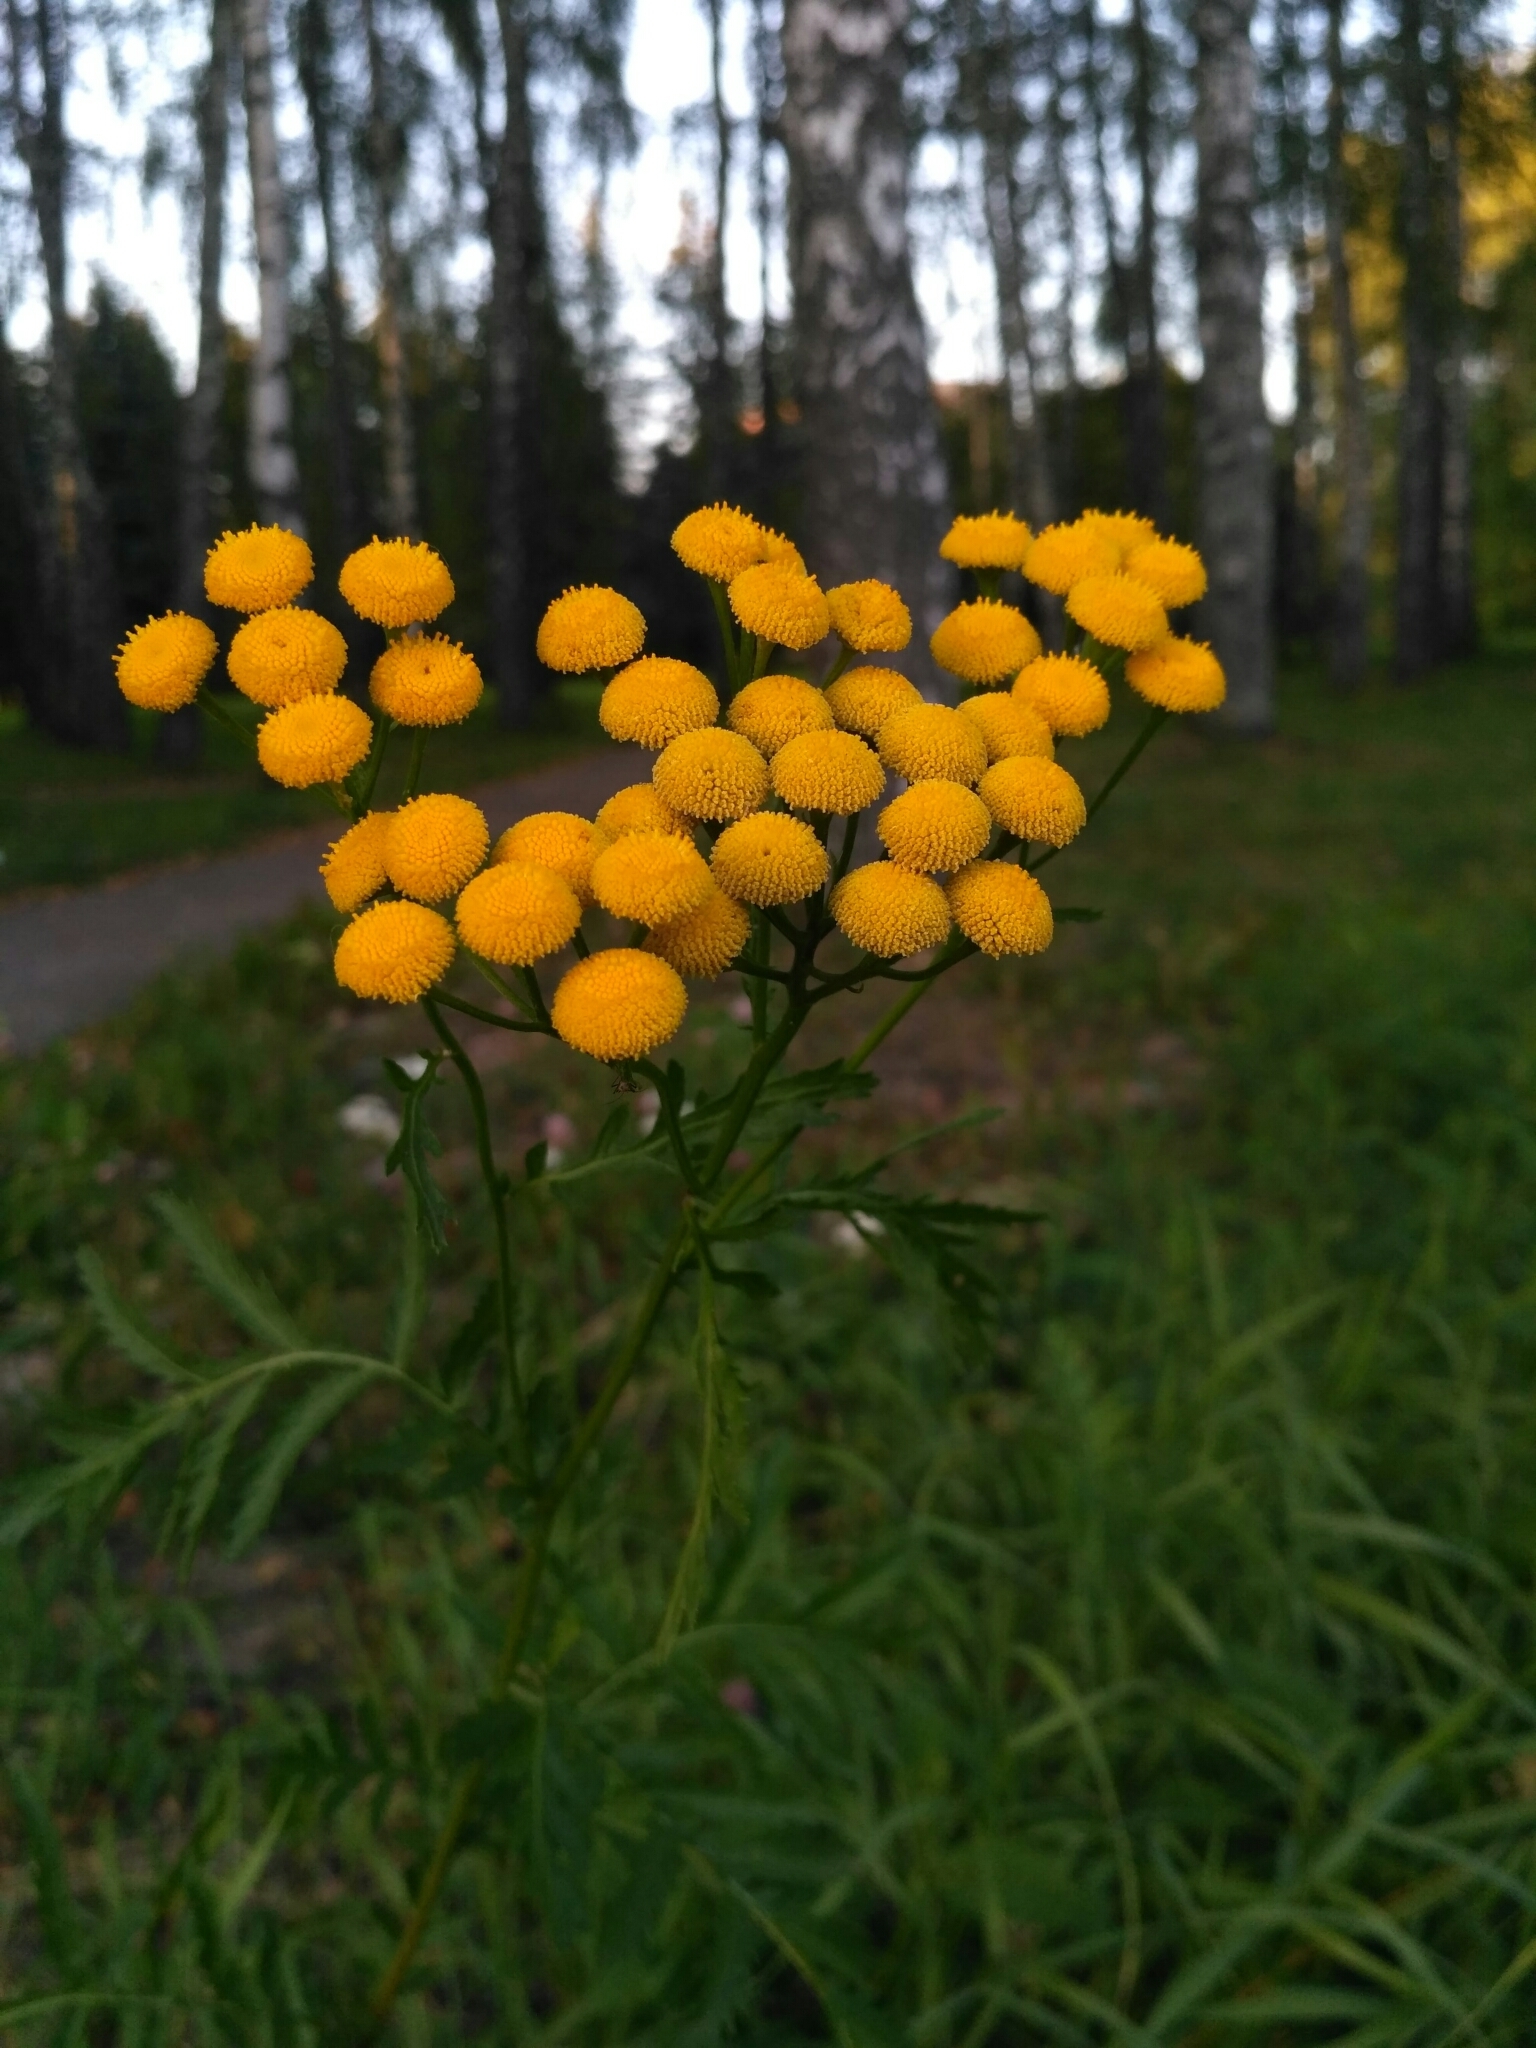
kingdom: Plantae
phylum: Tracheophyta
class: Magnoliopsida
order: Asterales
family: Asteraceae
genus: Tanacetum
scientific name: Tanacetum vulgare
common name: Common tansy
